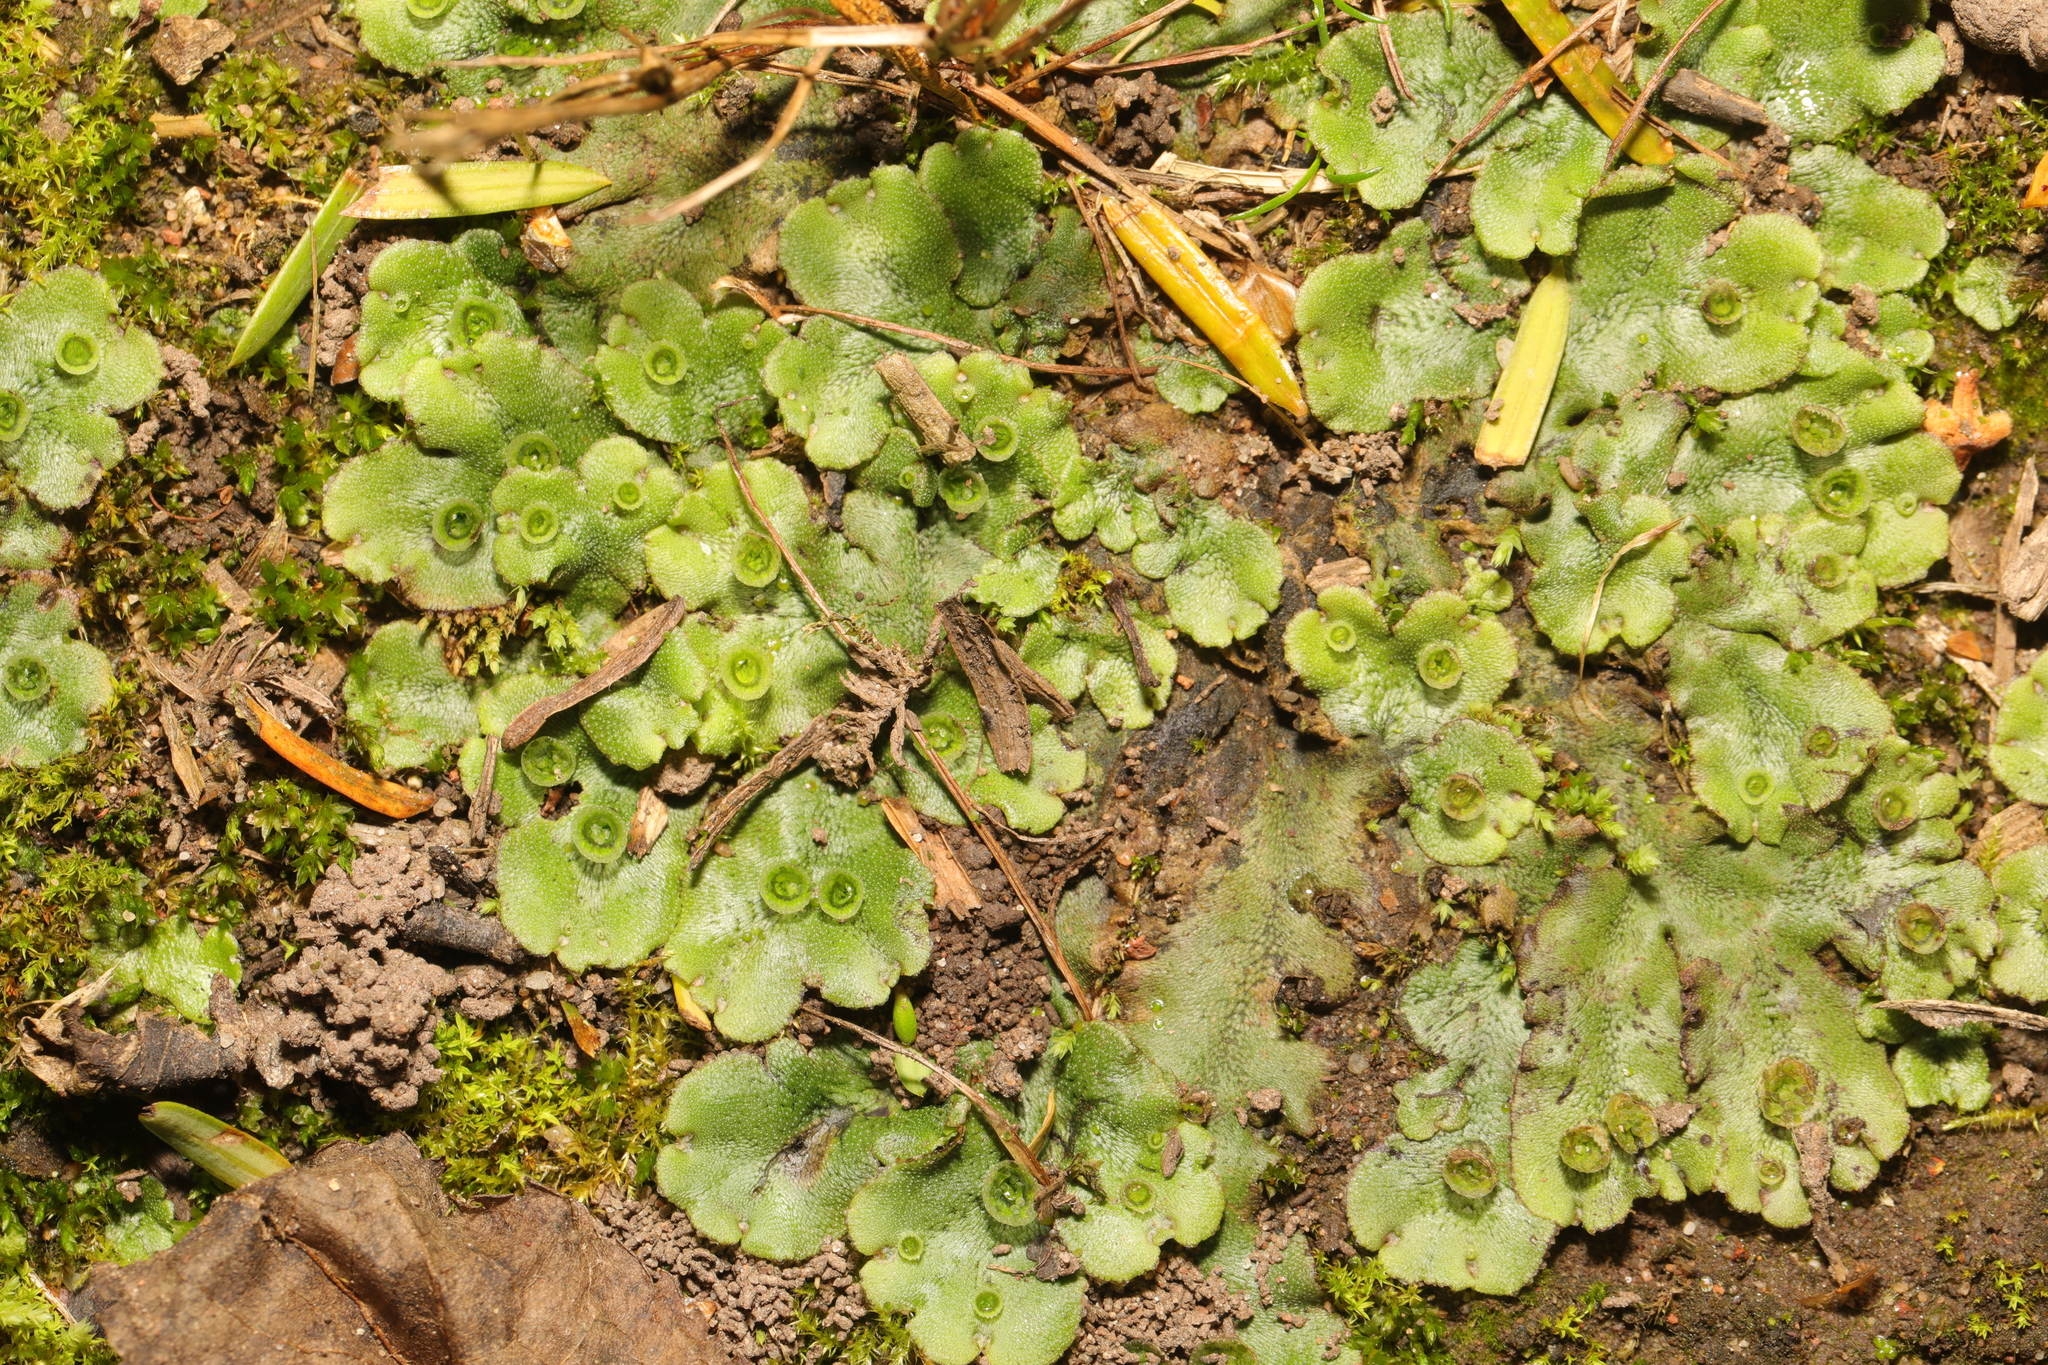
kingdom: Plantae
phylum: Marchantiophyta
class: Marchantiopsida
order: Marchantiales
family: Marchantiaceae
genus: Marchantia
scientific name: Marchantia polymorpha
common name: Common liverwort
